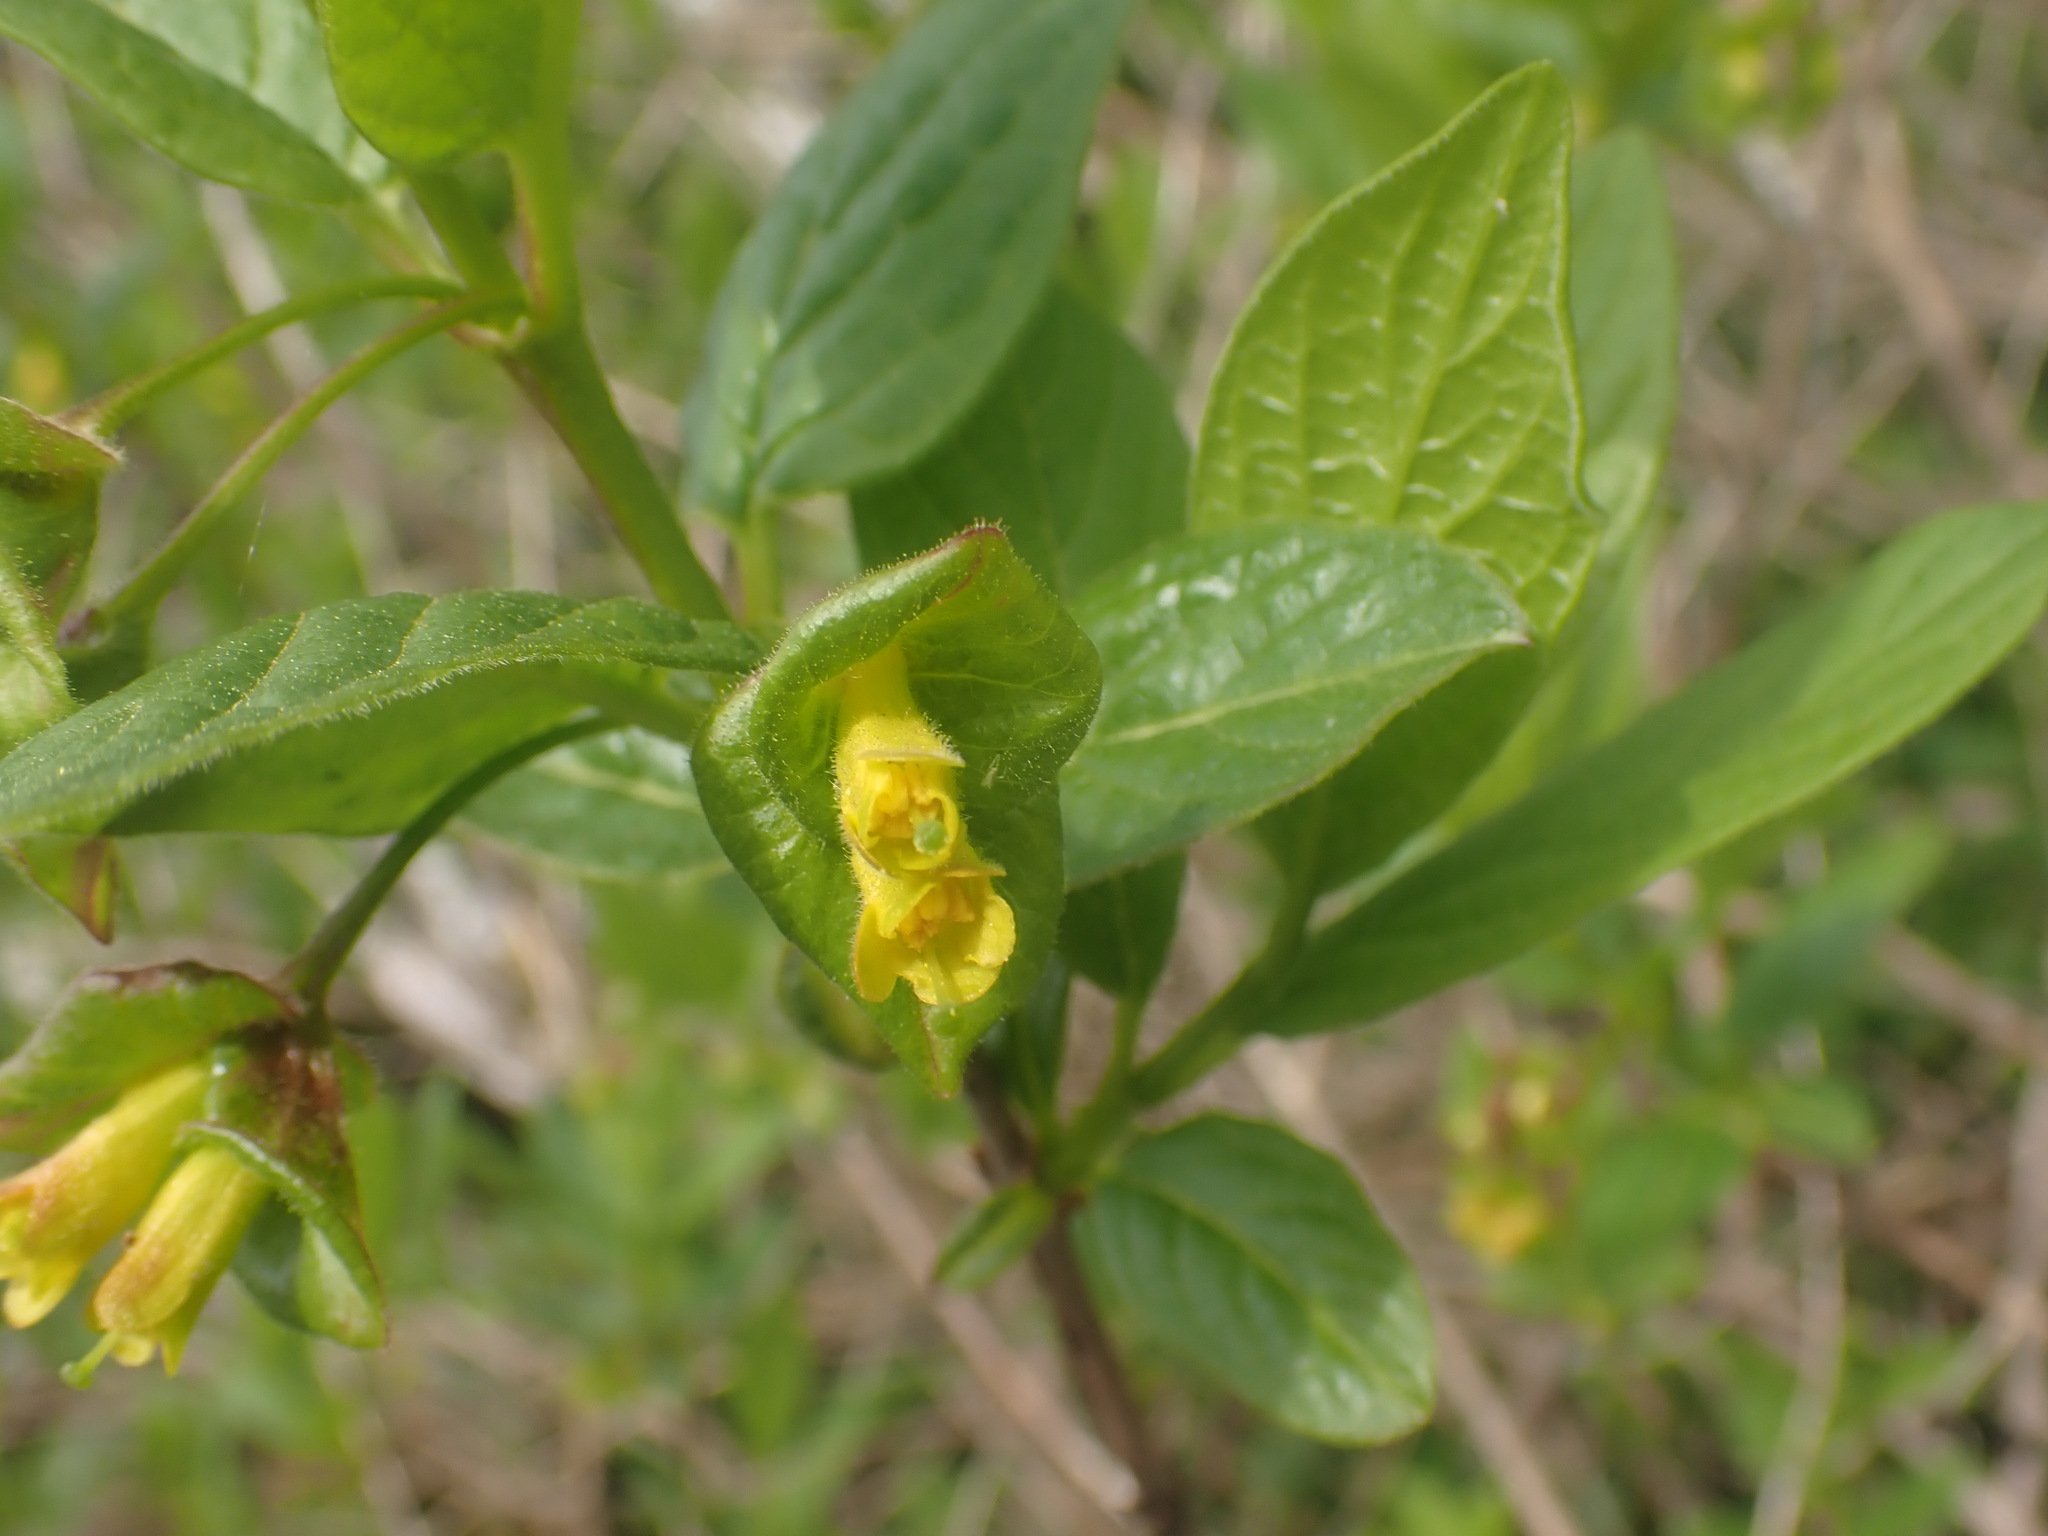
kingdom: Plantae
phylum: Tracheophyta
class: Magnoliopsida
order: Dipsacales
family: Caprifoliaceae
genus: Lonicera
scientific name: Lonicera involucrata
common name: Californian honeysuckle
